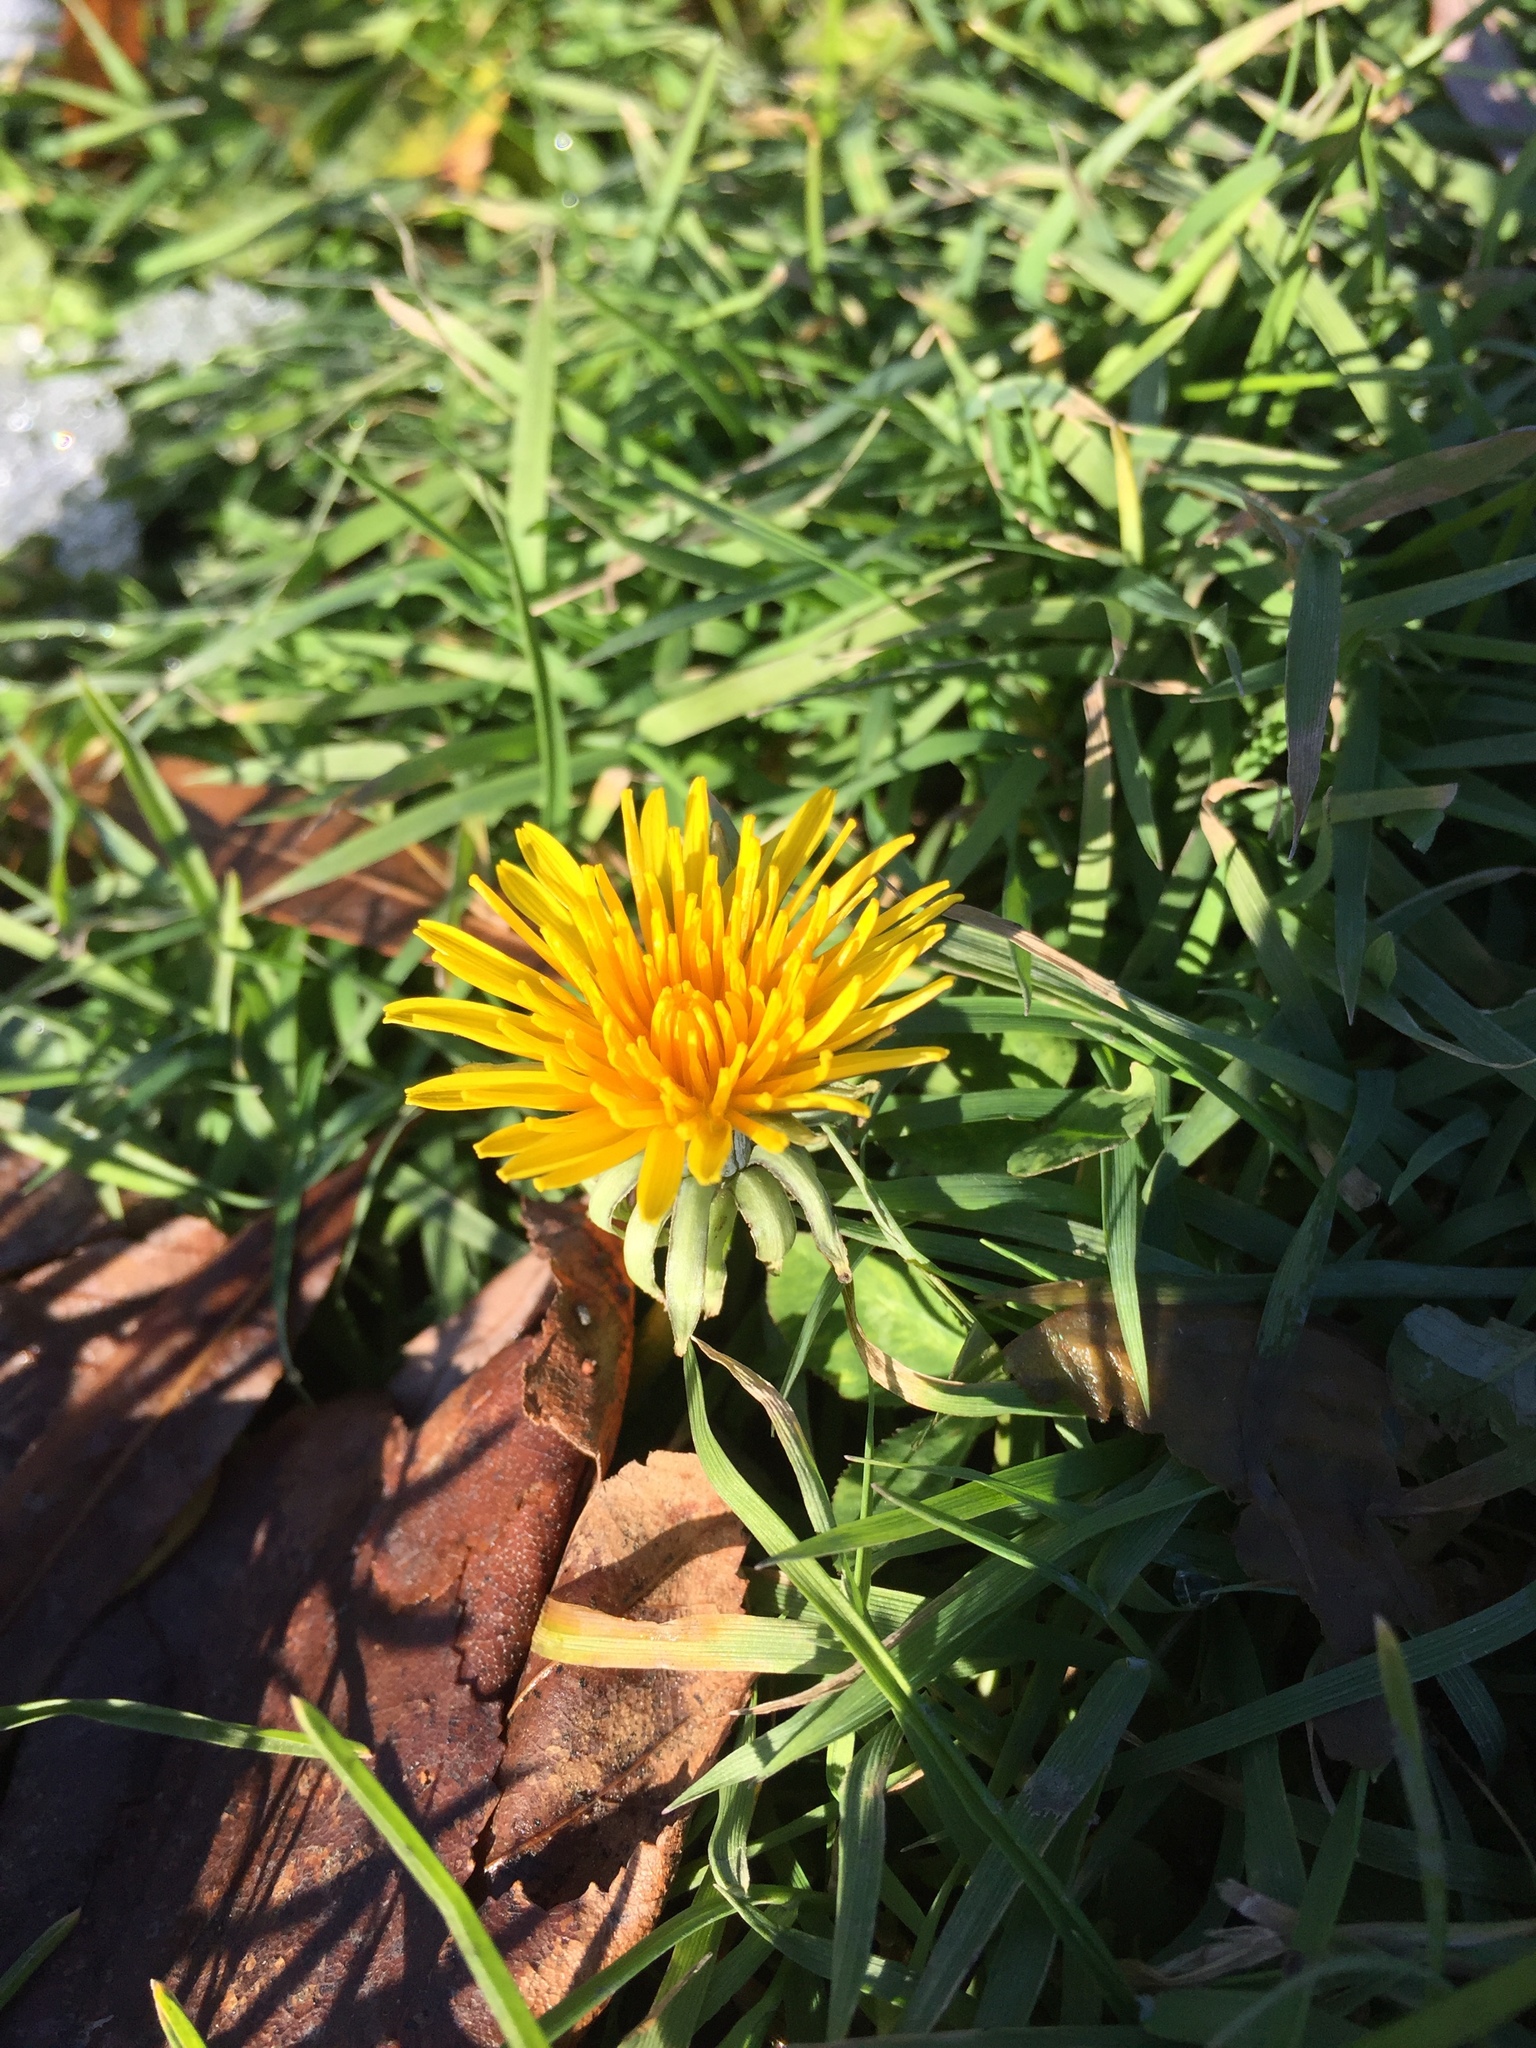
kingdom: Plantae
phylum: Tracheophyta
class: Magnoliopsida
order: Asterales
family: Asteraceae
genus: Taraxacum
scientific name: Taraxacum officinale
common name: Common dandelion
